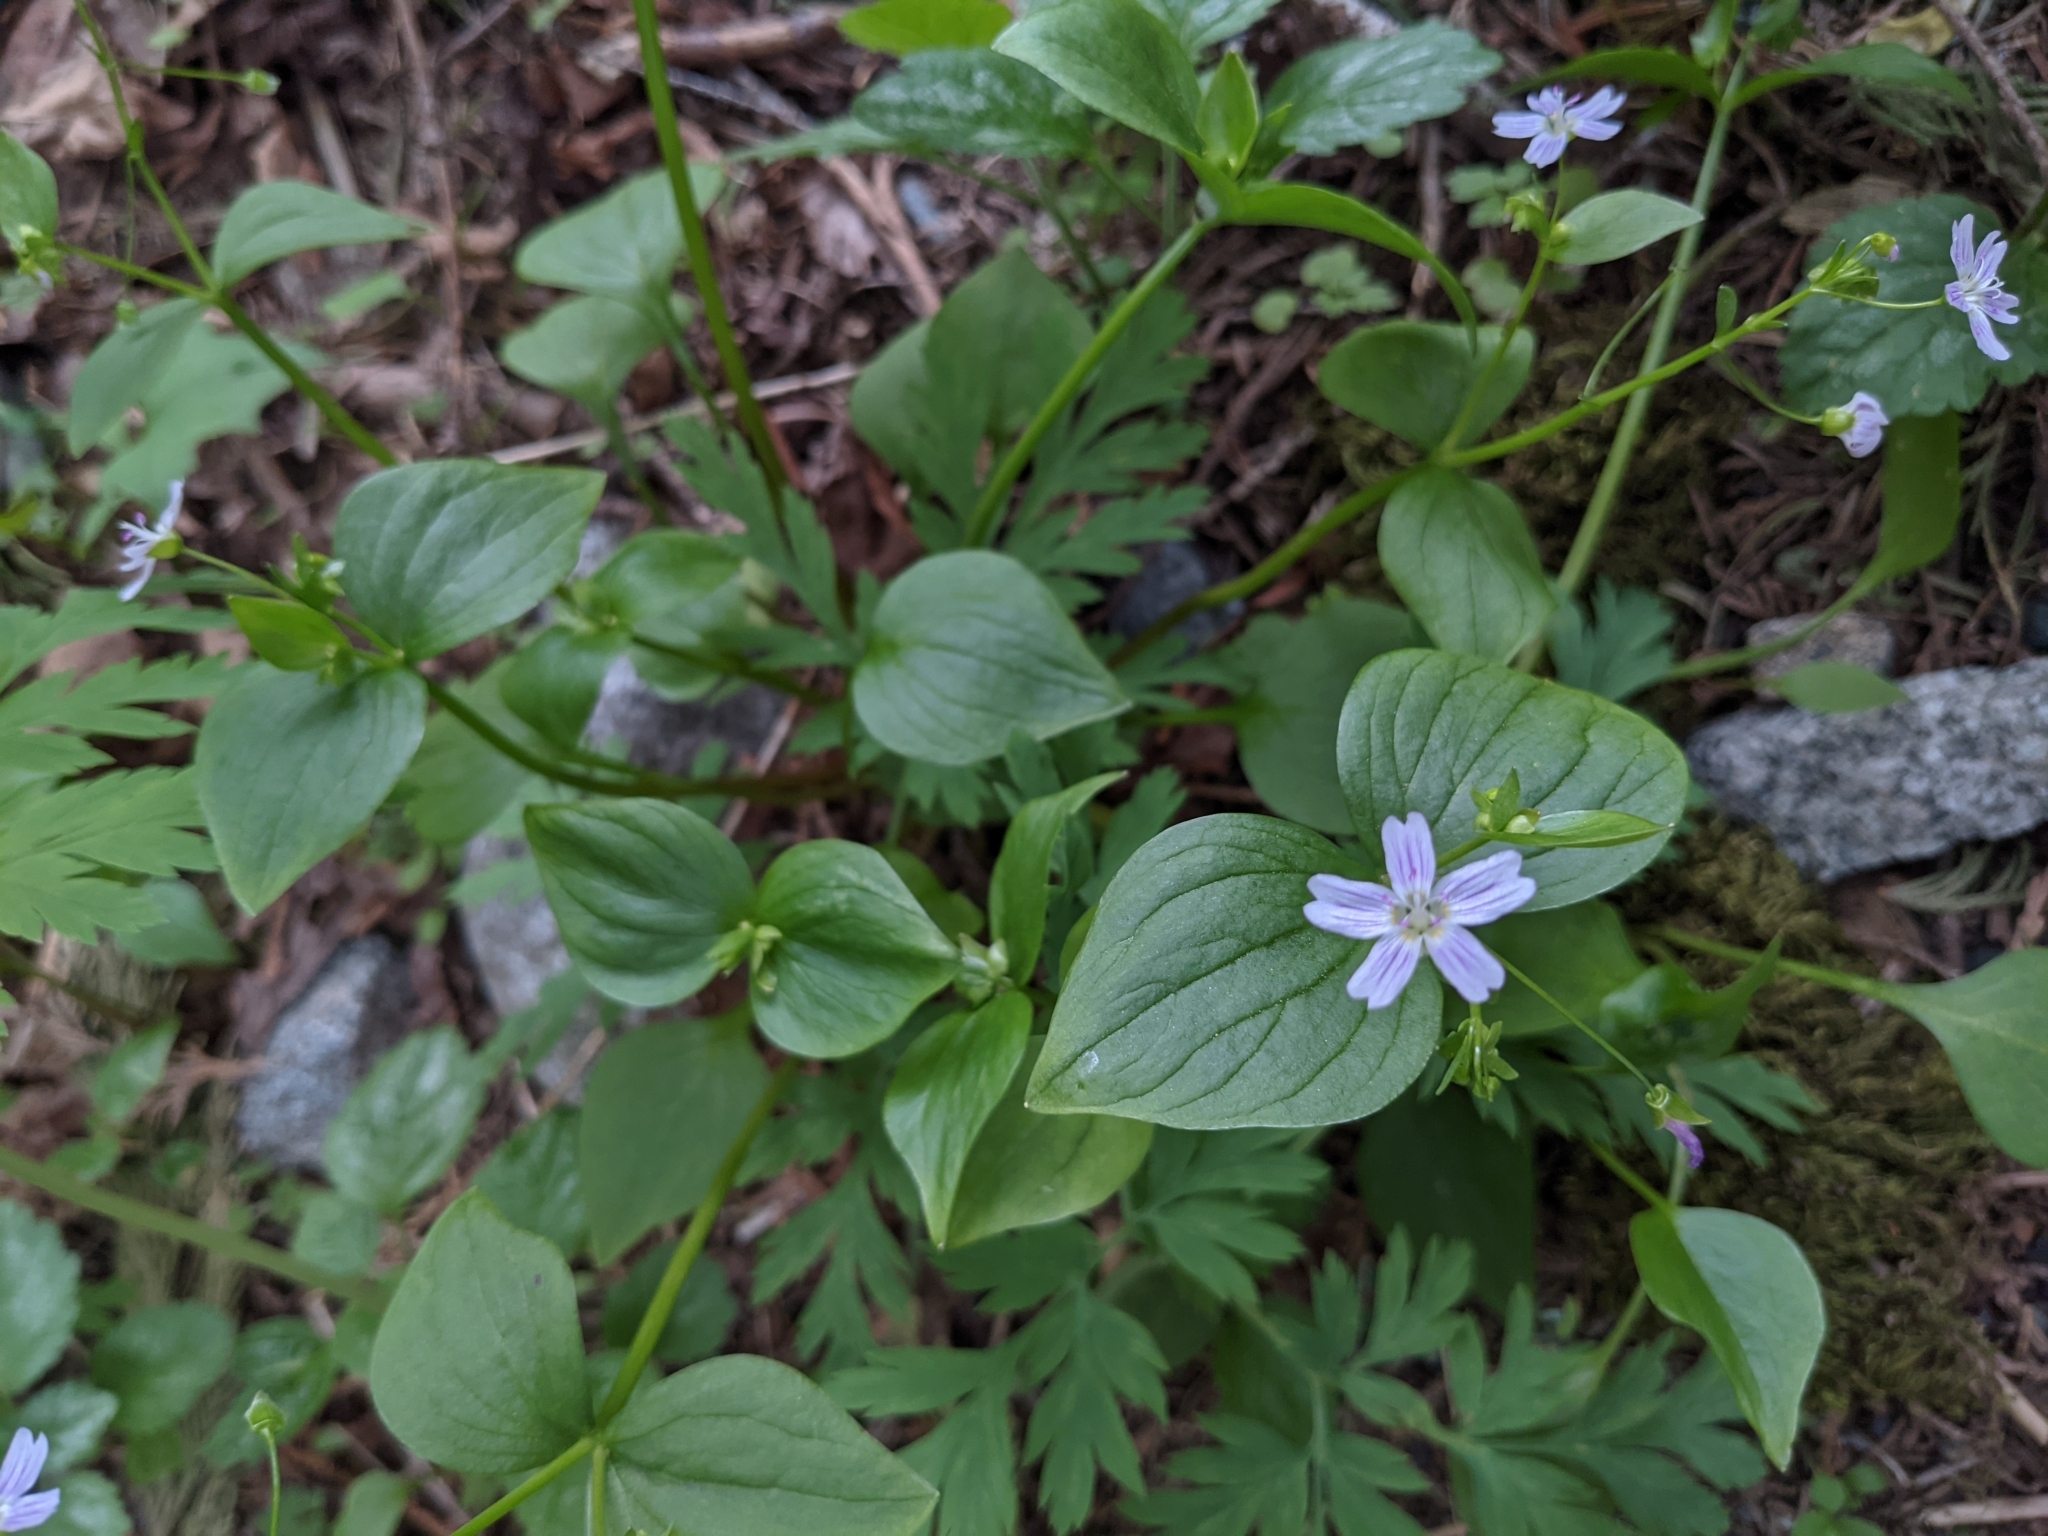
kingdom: Plantae
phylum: Tracheophyta
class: Magnoliopsida
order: Caryophyllales
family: Montiaceae
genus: Claytonia
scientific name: Claytonia sibirica
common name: Pink purslane
